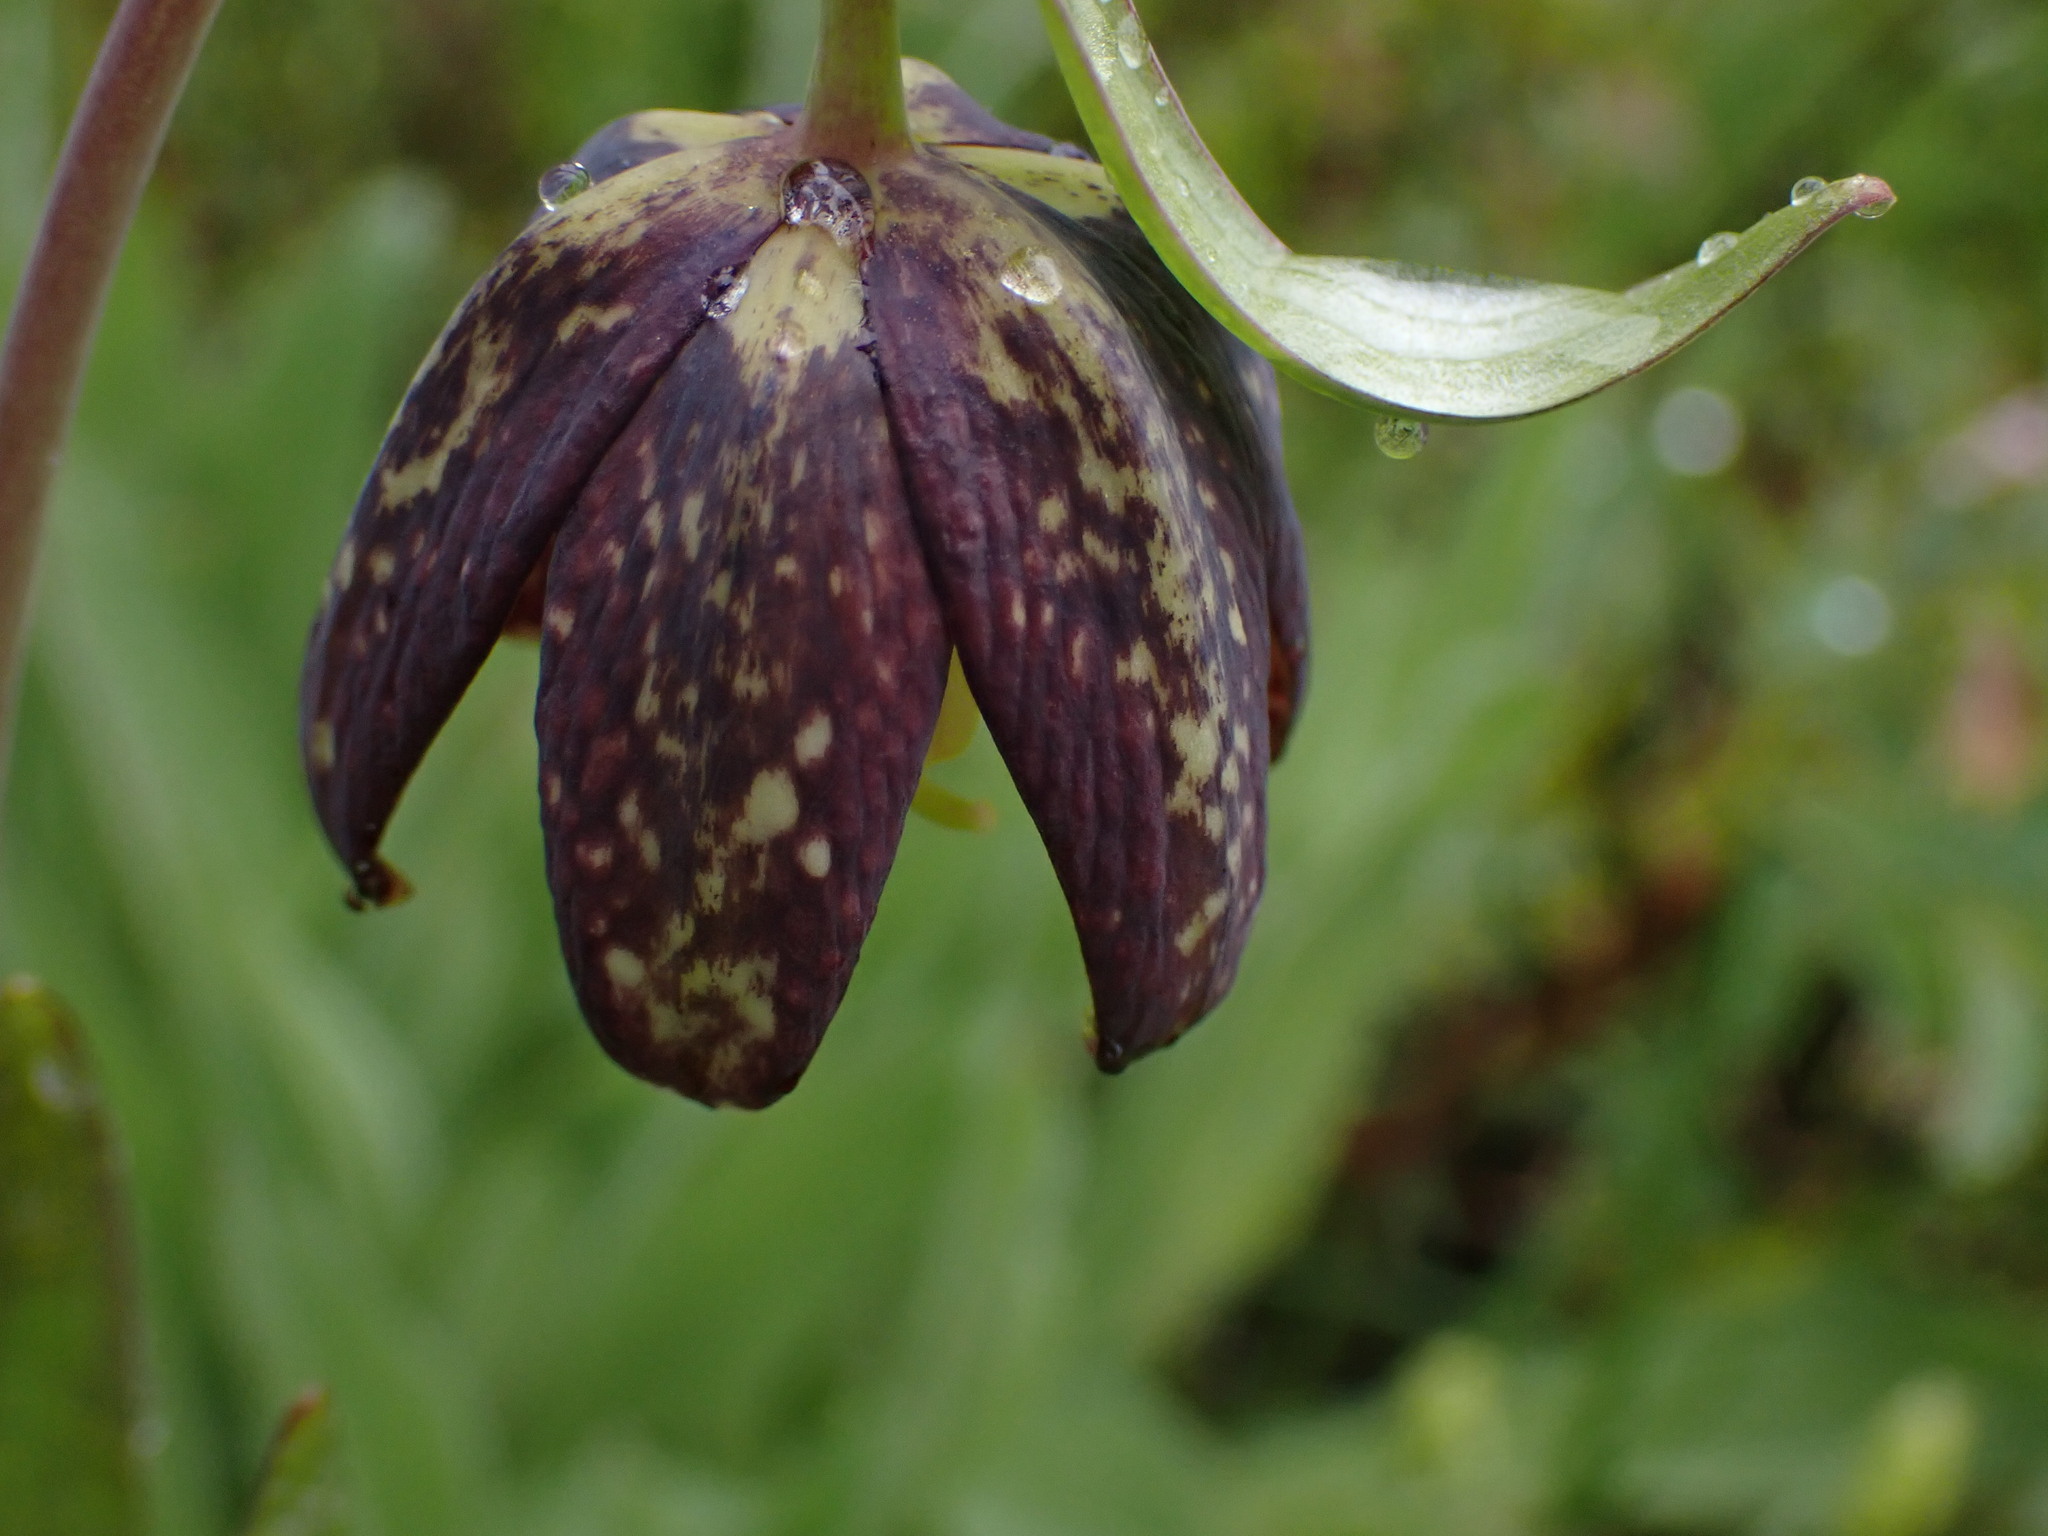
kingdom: Plantae
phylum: Tracheophyta
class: Liliopsida
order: Liliales
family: Liliaceae
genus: Fritillaria
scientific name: Fritillaria affinis
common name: Ojai fritillary
